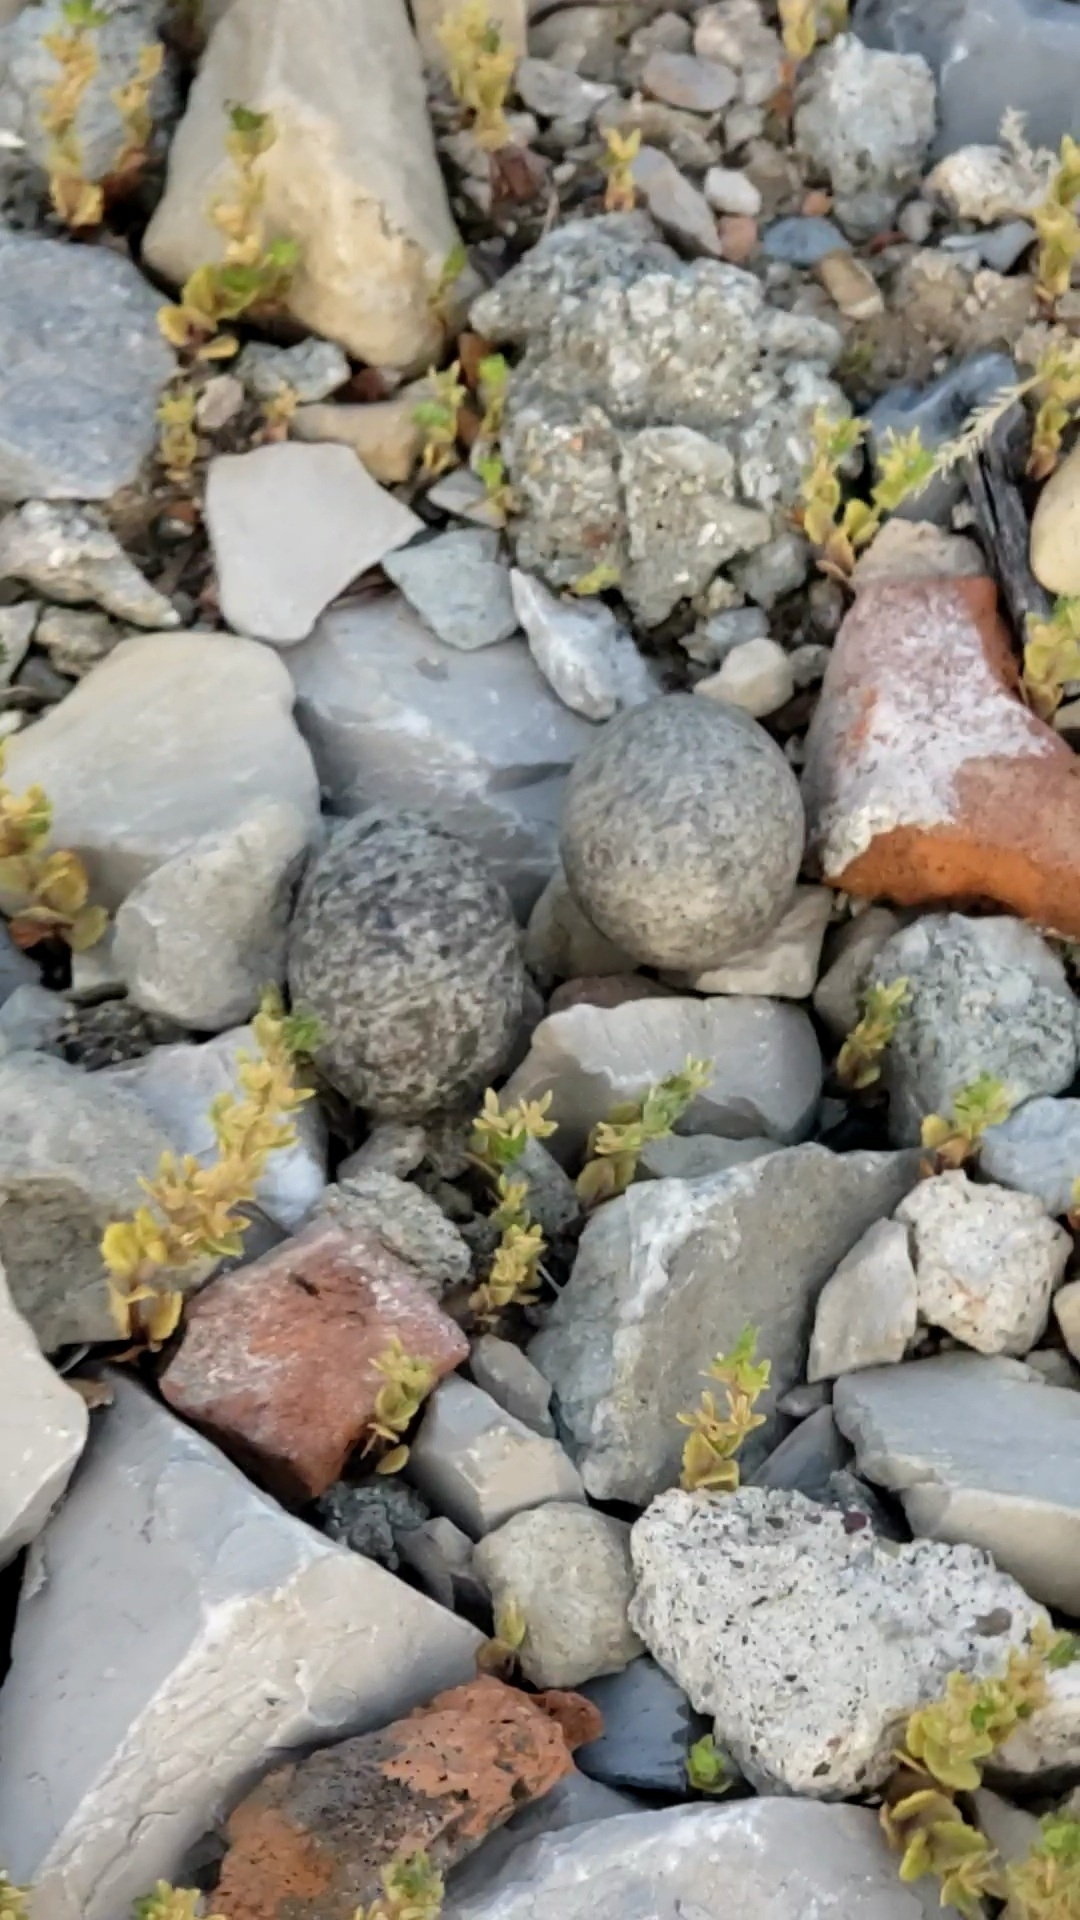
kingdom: Animalia
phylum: Chordata
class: Aves
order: Caprimulgiformes
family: Caprimulgidae
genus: Chordeiles
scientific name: Chordeiles minor
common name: Common nighthawk
